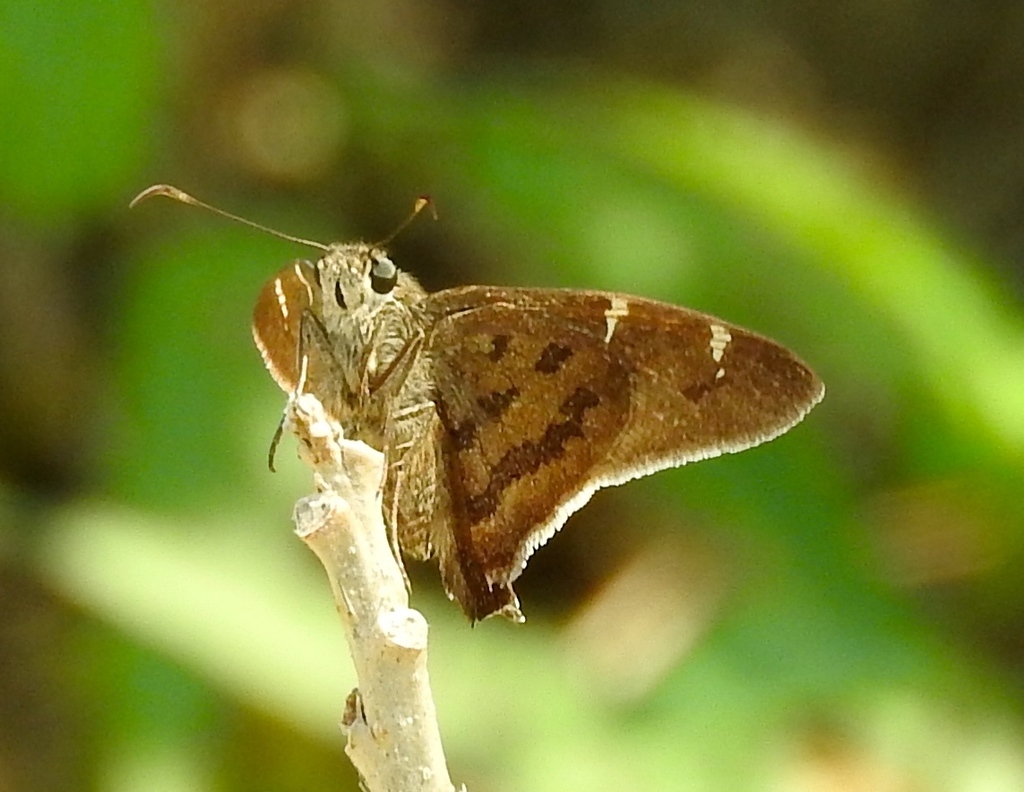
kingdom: Animalia
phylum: Arthropoda
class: Insecta
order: Lepidoptera
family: Hesperiidae
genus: Spicauda
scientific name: Spicauda
